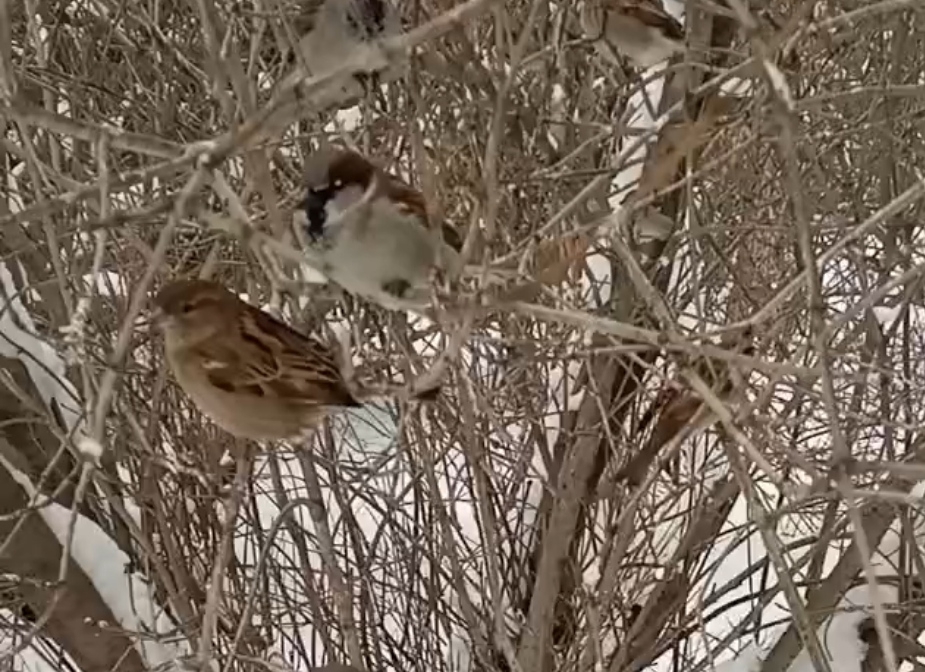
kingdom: Animalia
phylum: Chordata
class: Aves
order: Passeriformes
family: Passeridae
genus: Passer
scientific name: Passer domesticus
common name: House sparrow
